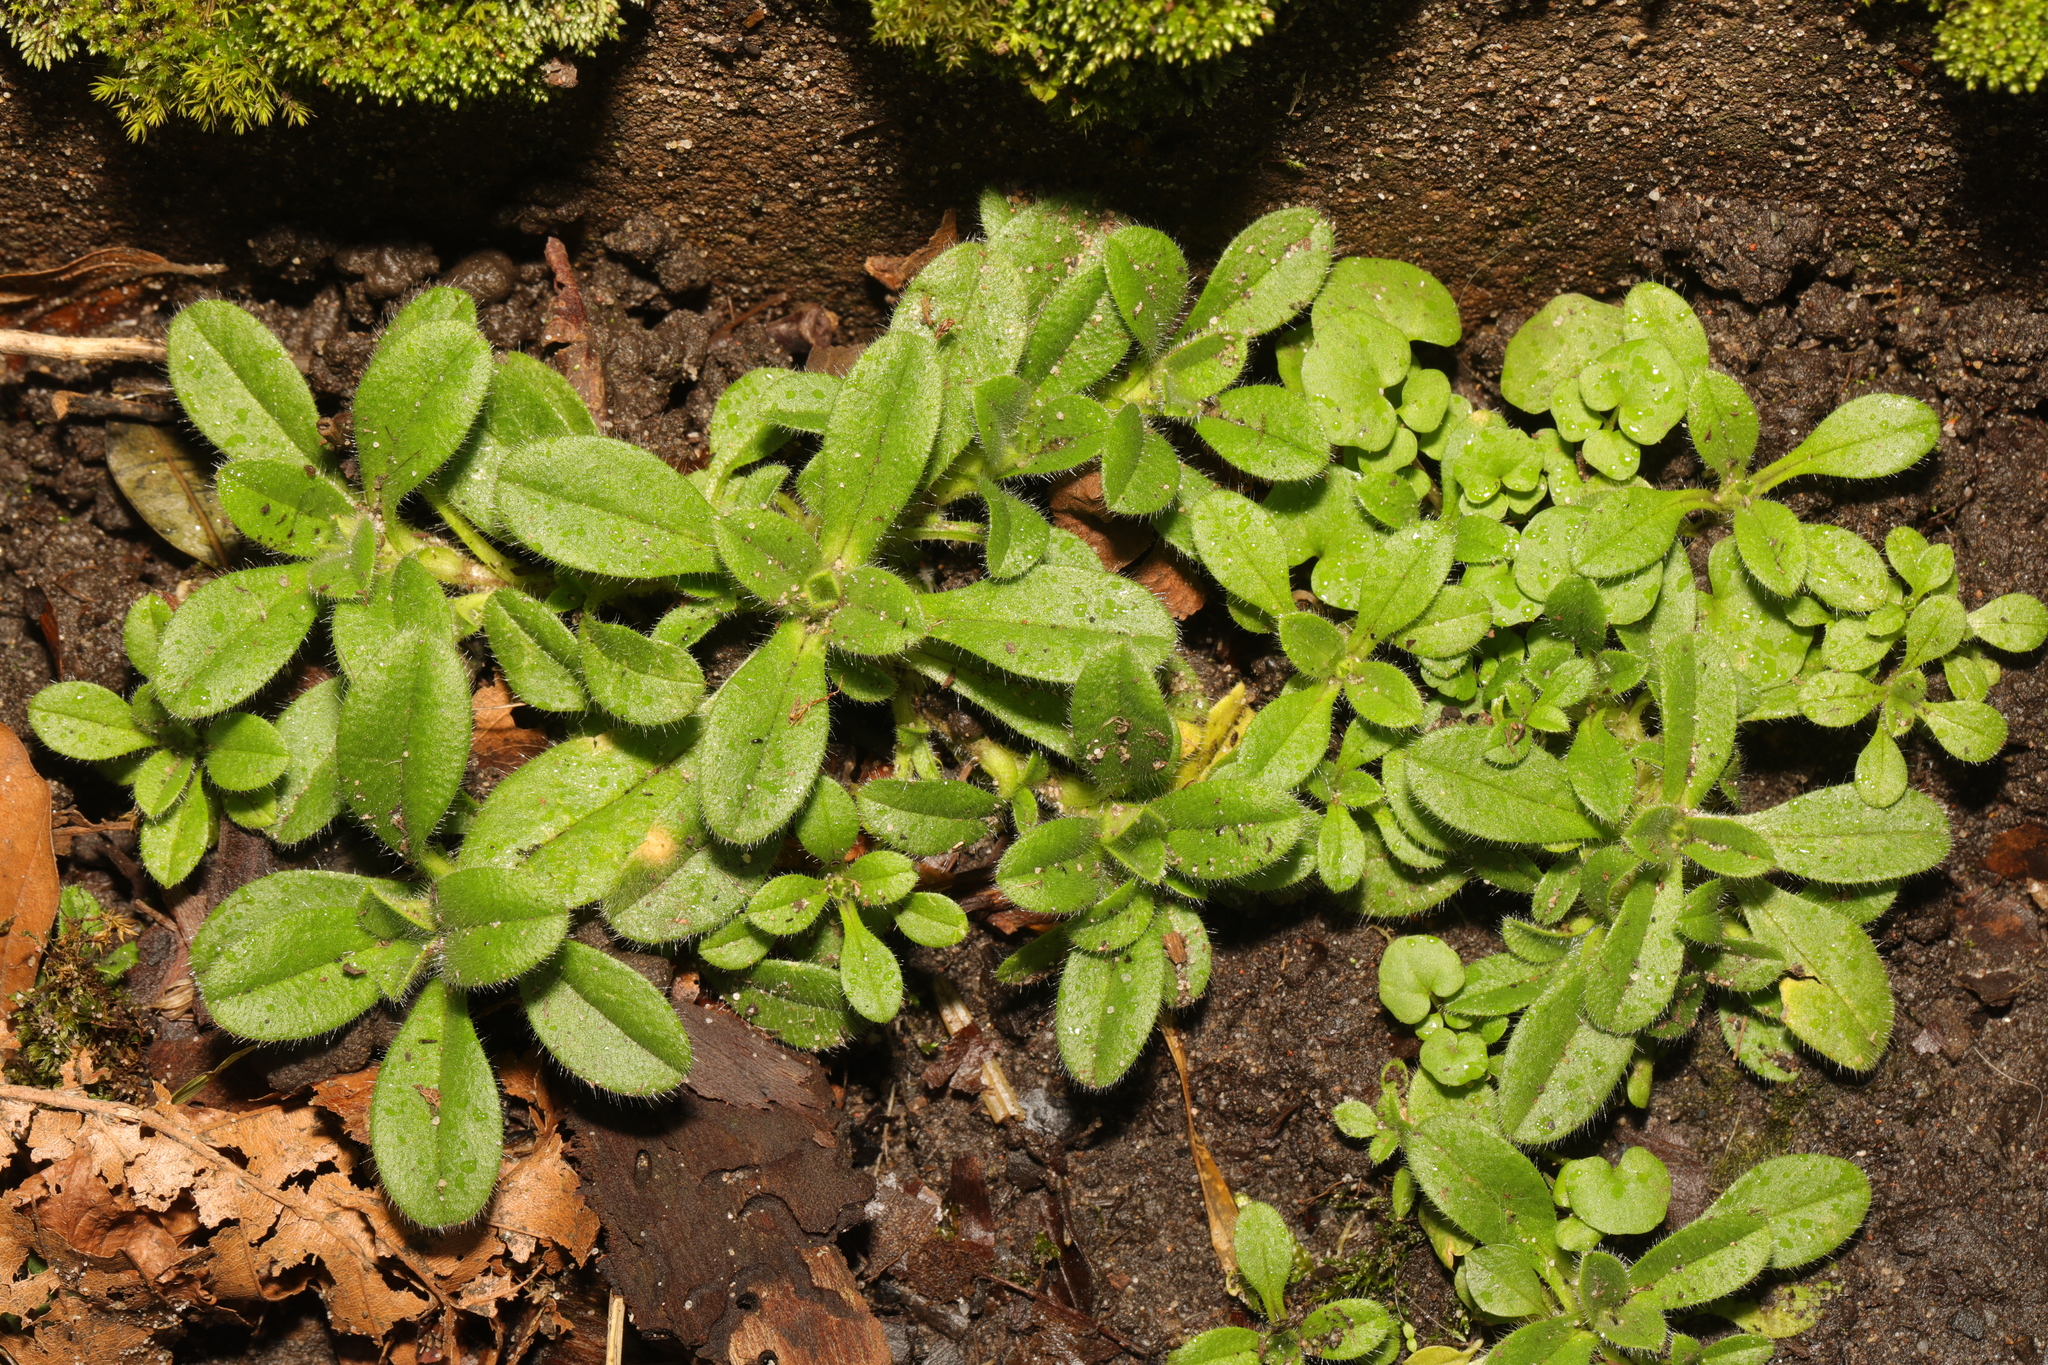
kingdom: Plantae
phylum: Tracheophyta
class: Magnoliopsida
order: Caryophyllales
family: Caryophyllaceae
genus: Cerastium
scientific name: Cerastium fontanum
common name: Common mouse-ear
